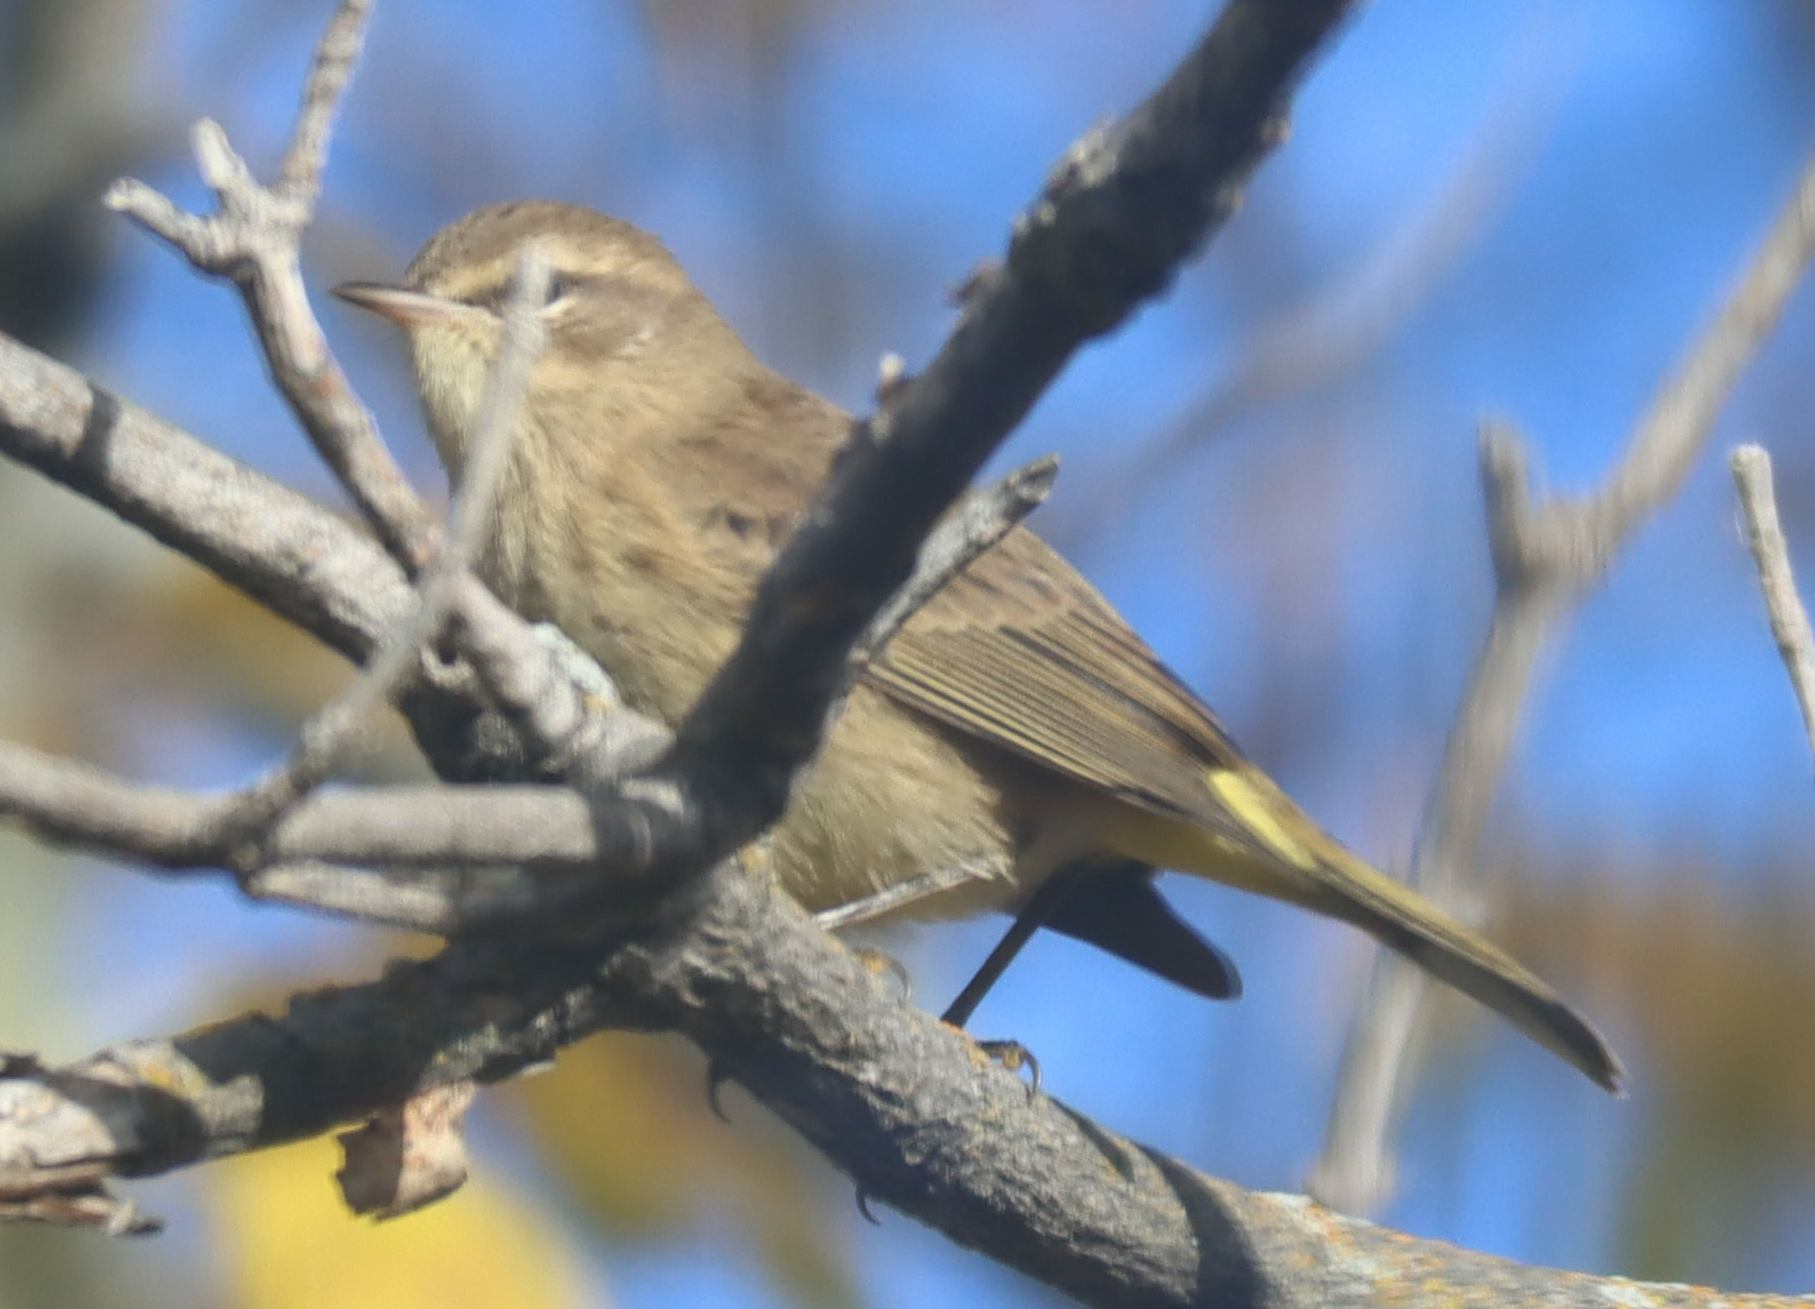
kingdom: Animalia
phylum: Chordata
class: Aves
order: Passeriformes
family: Parulidae
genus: Setophaga
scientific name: Setophaga palmarum
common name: Palm warbler
